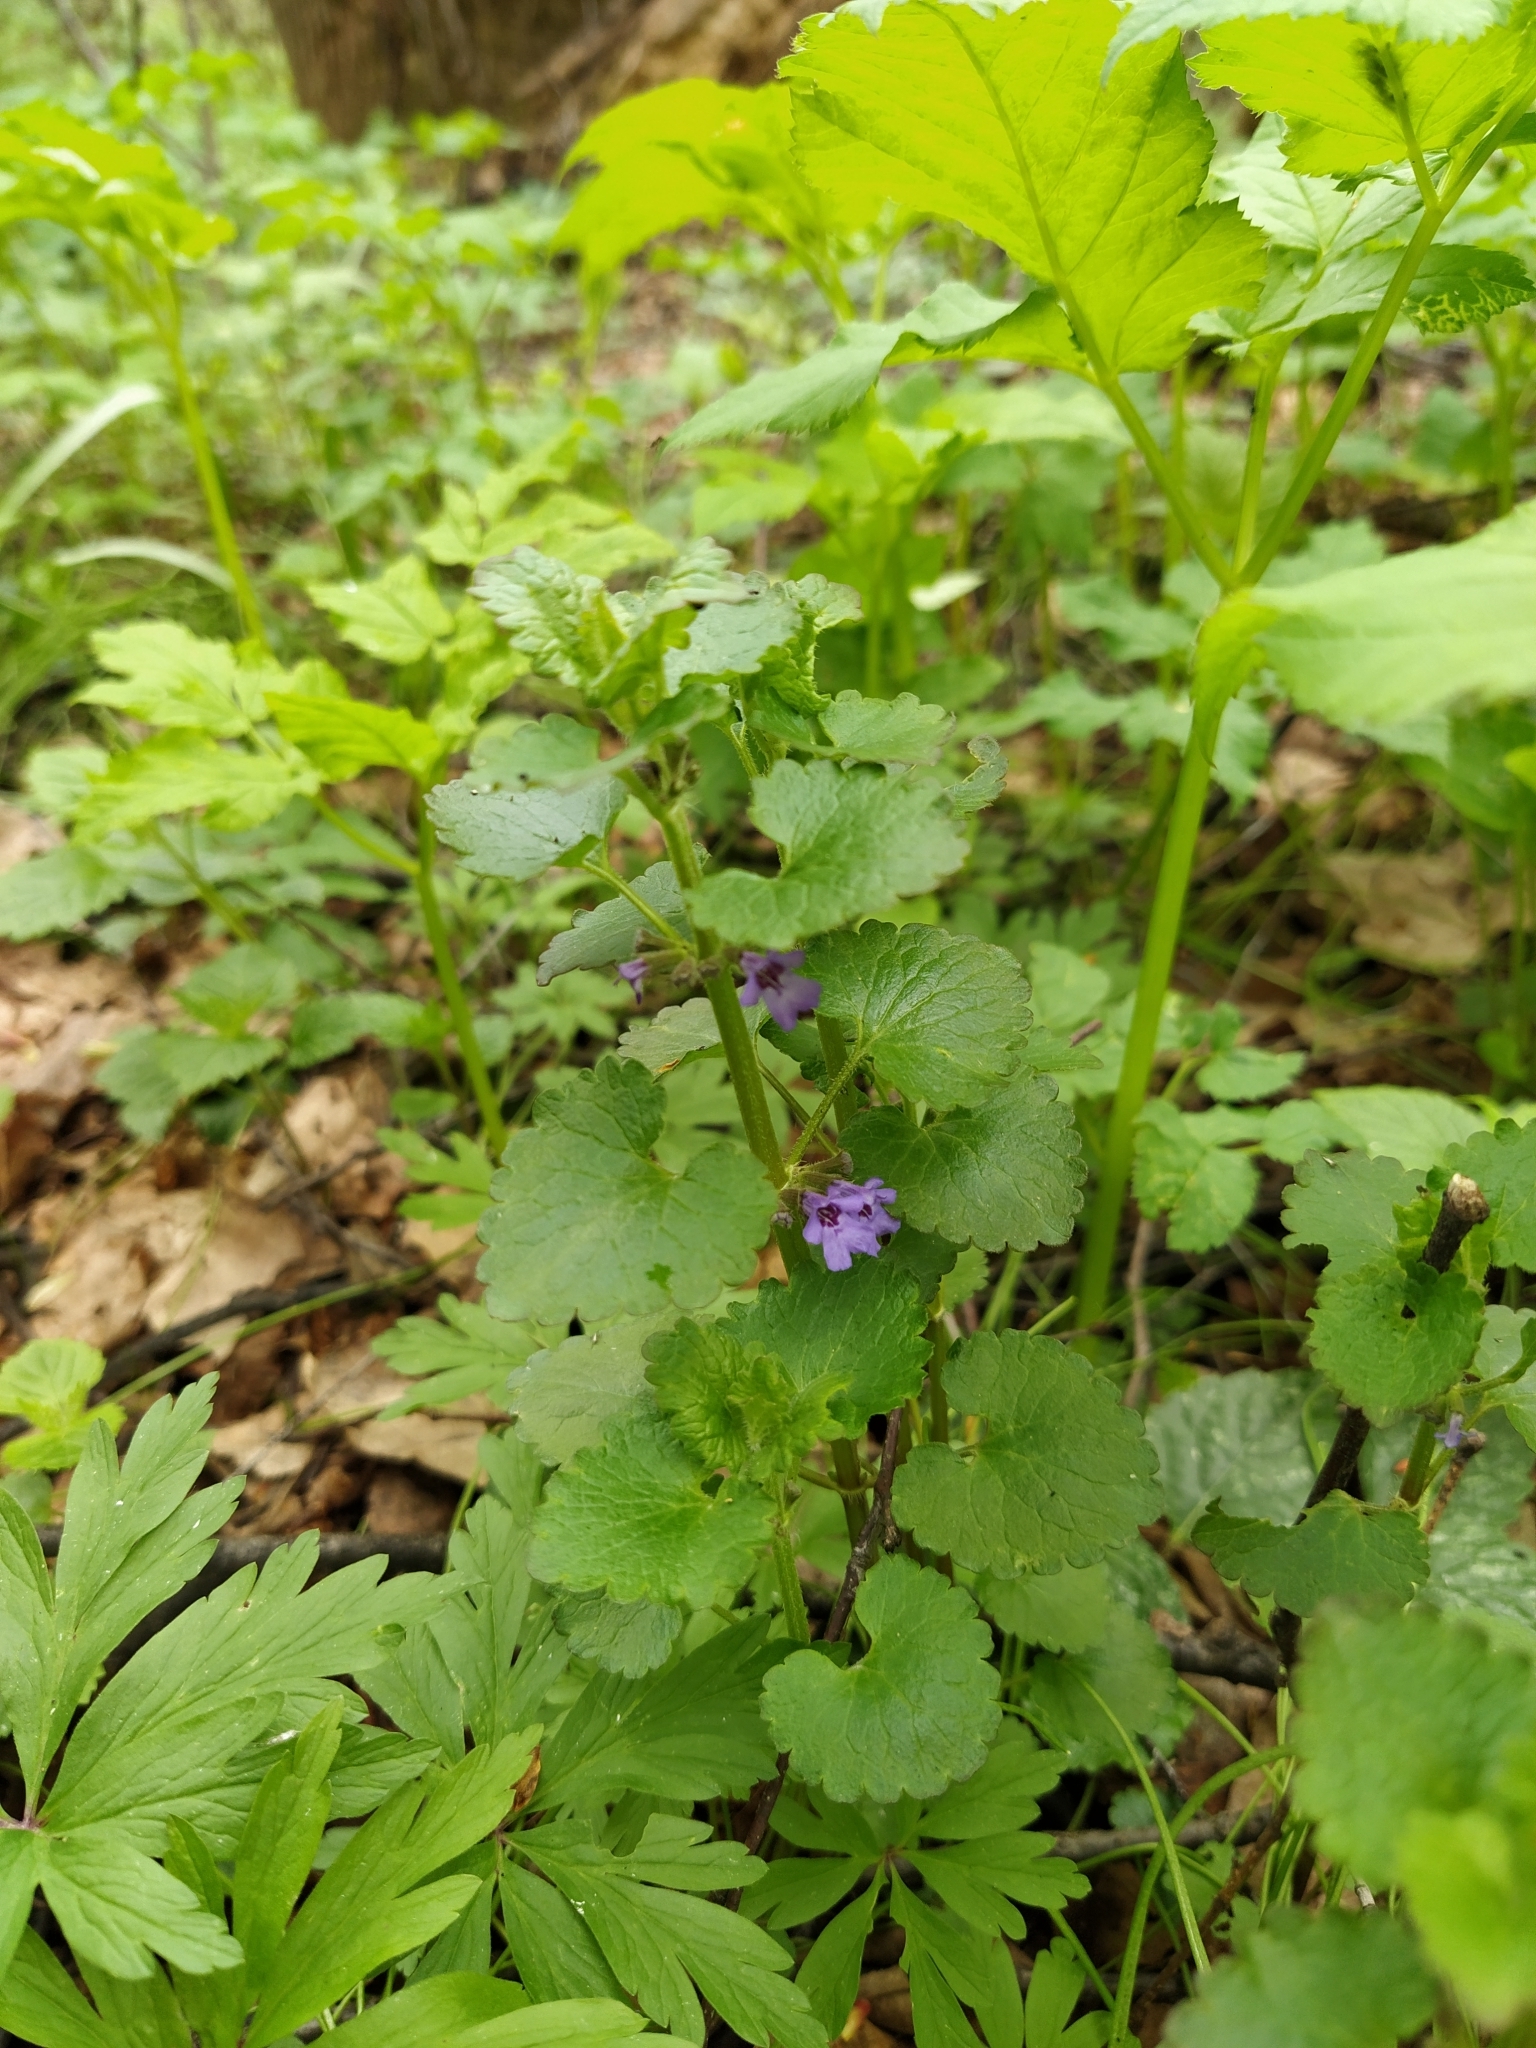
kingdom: Plantae
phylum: Tracheophyta
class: Magnoliopsida
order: Lamiales
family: Lamiaceae
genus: Glechoma
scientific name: Glechoma hederacea
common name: Ground ivy
